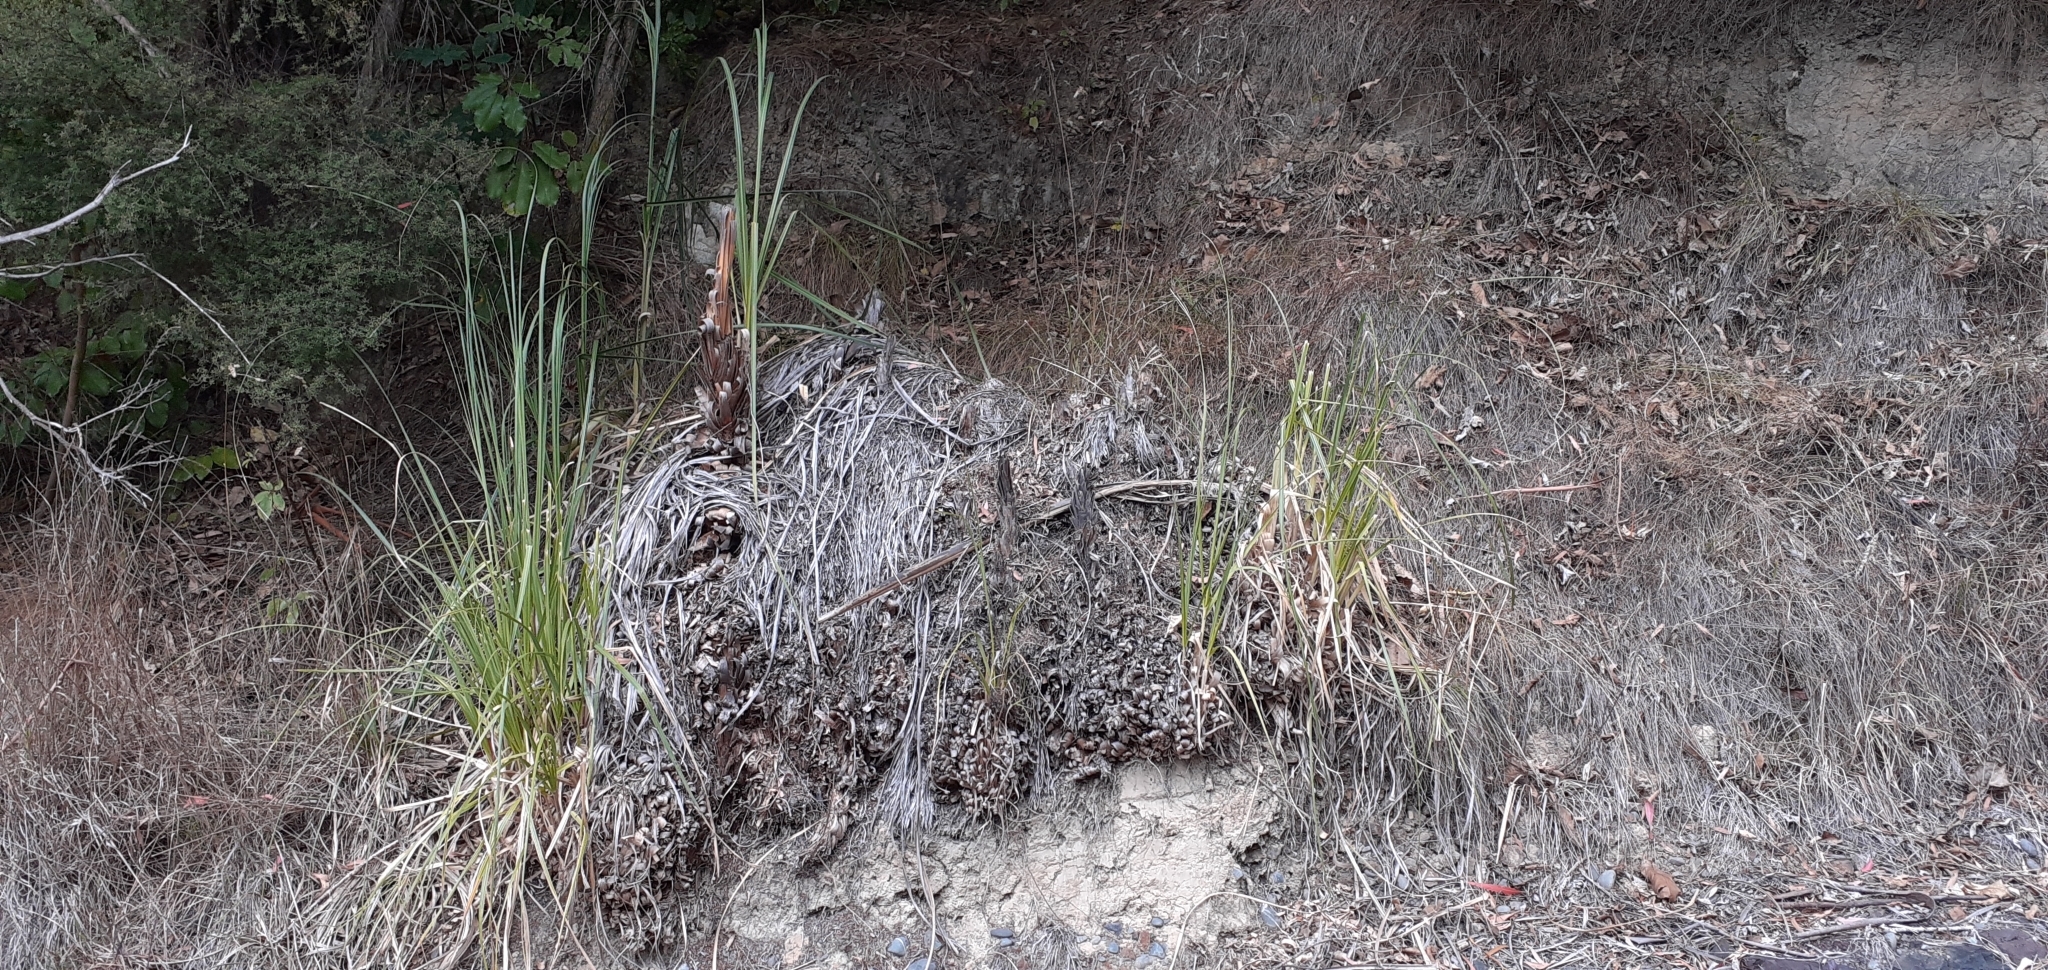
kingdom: Plantae
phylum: Tracheophyta
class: Liliopsida
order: Poales
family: Poaceae
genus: Cortaderia
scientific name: Cortaderia selloana
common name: Uruguayan pampas grass
